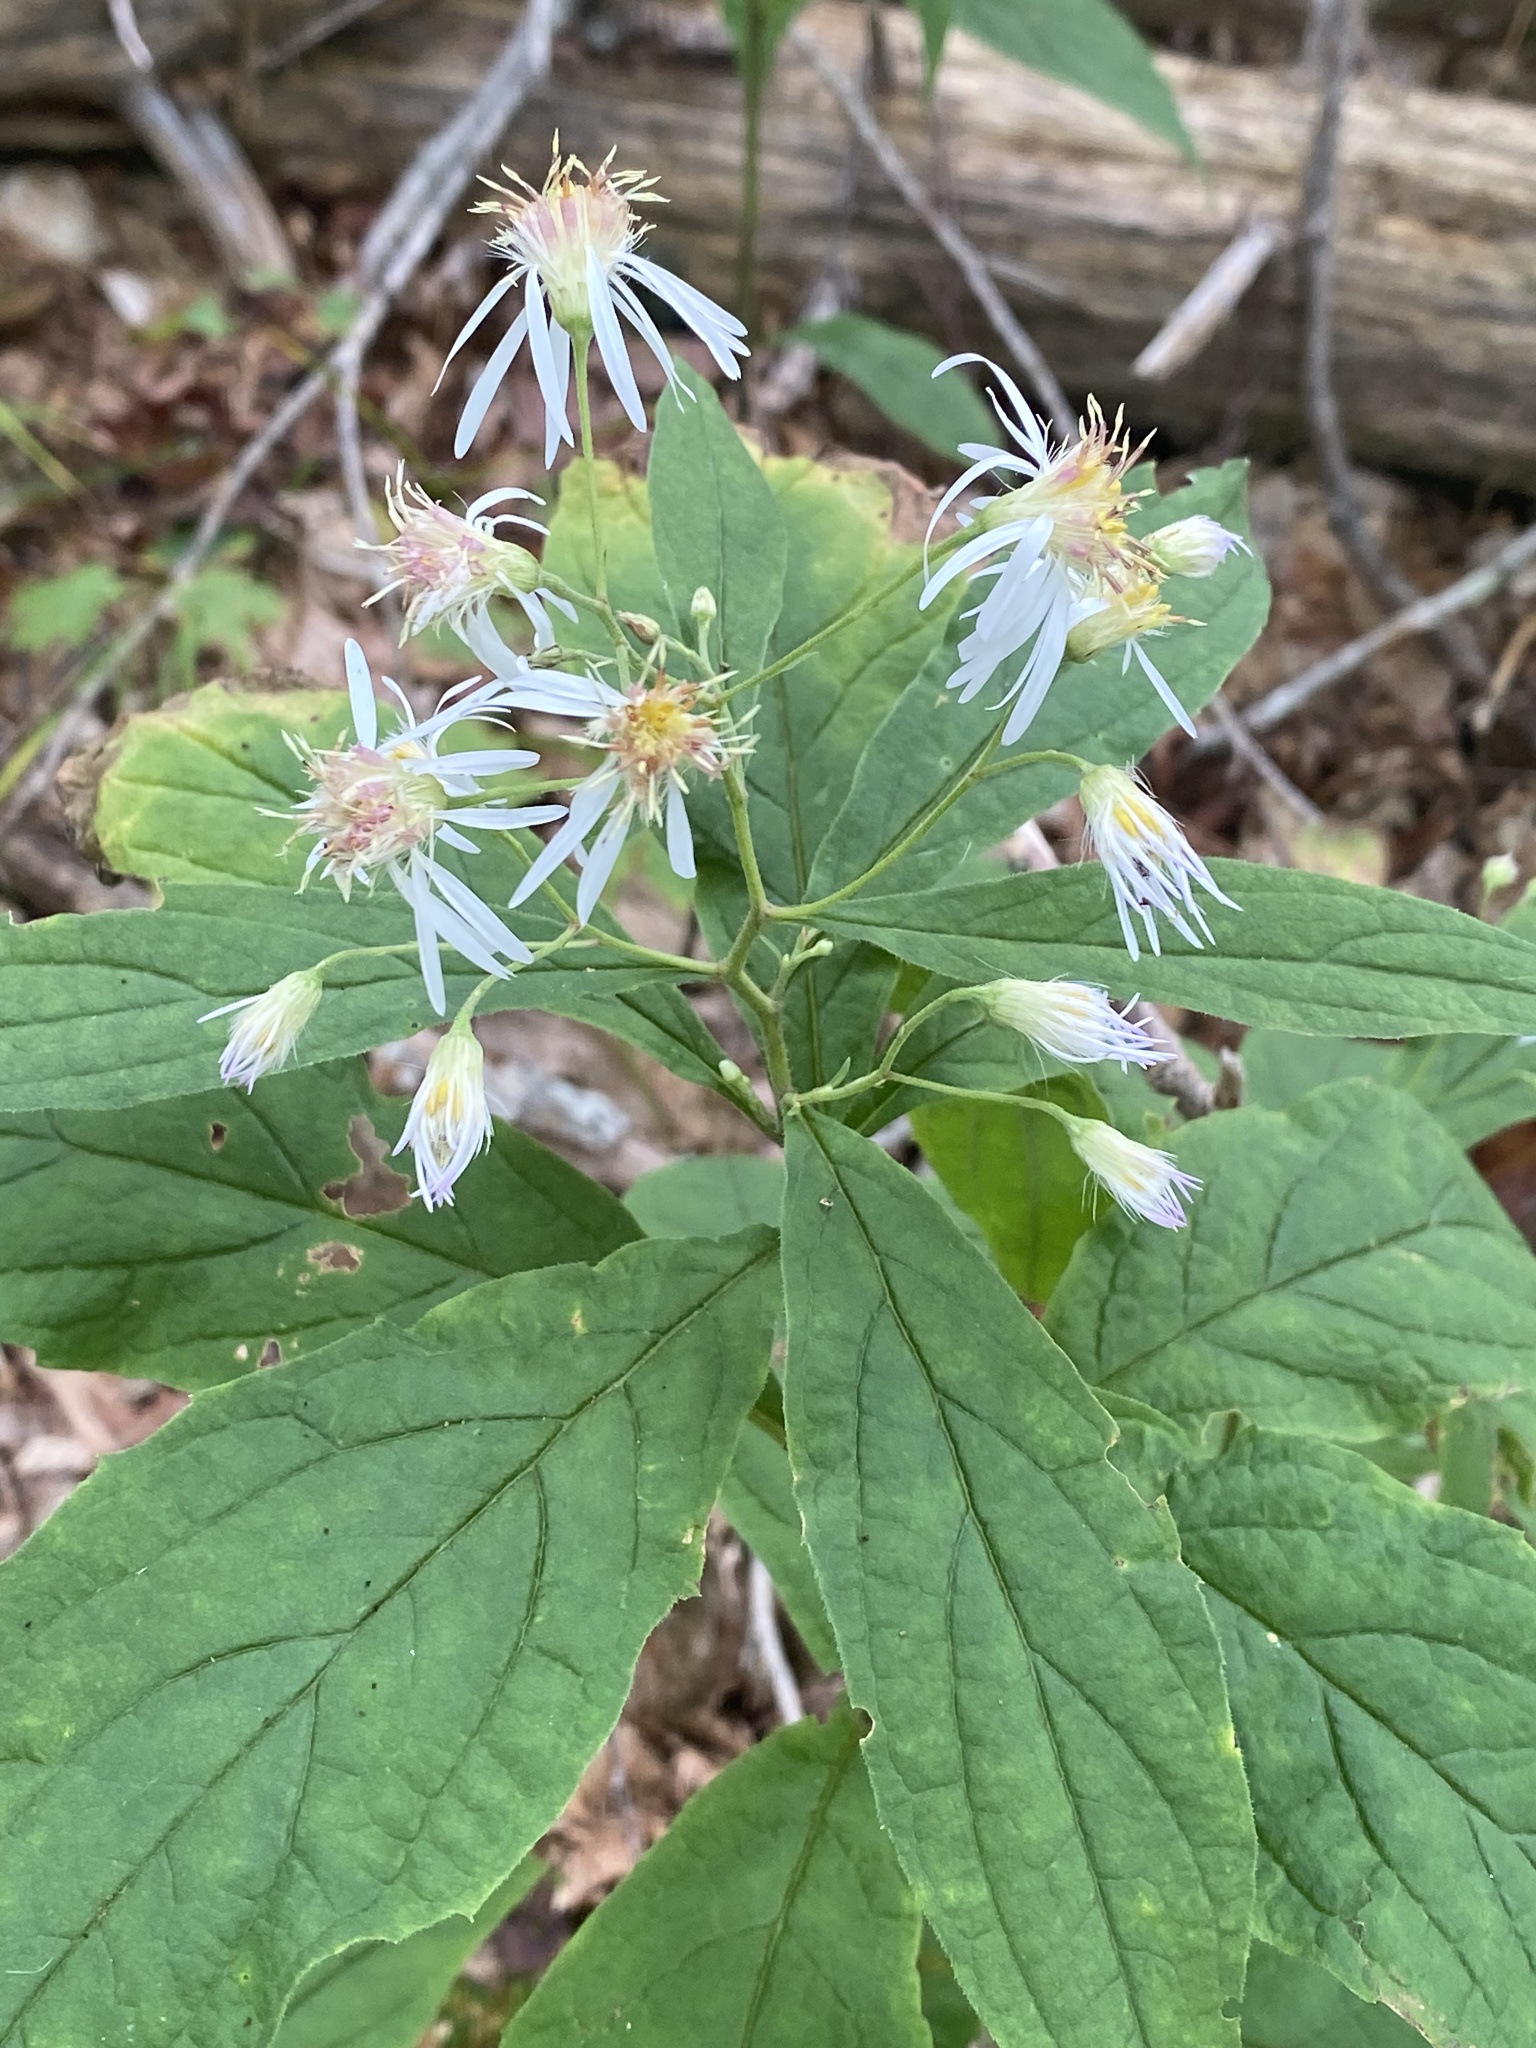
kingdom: Plantae
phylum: Tracheophyta
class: Magnoliopsida
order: Asterales
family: Asteraceae
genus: Oclemena
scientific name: Oclemena acuminata
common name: Mountain aster
